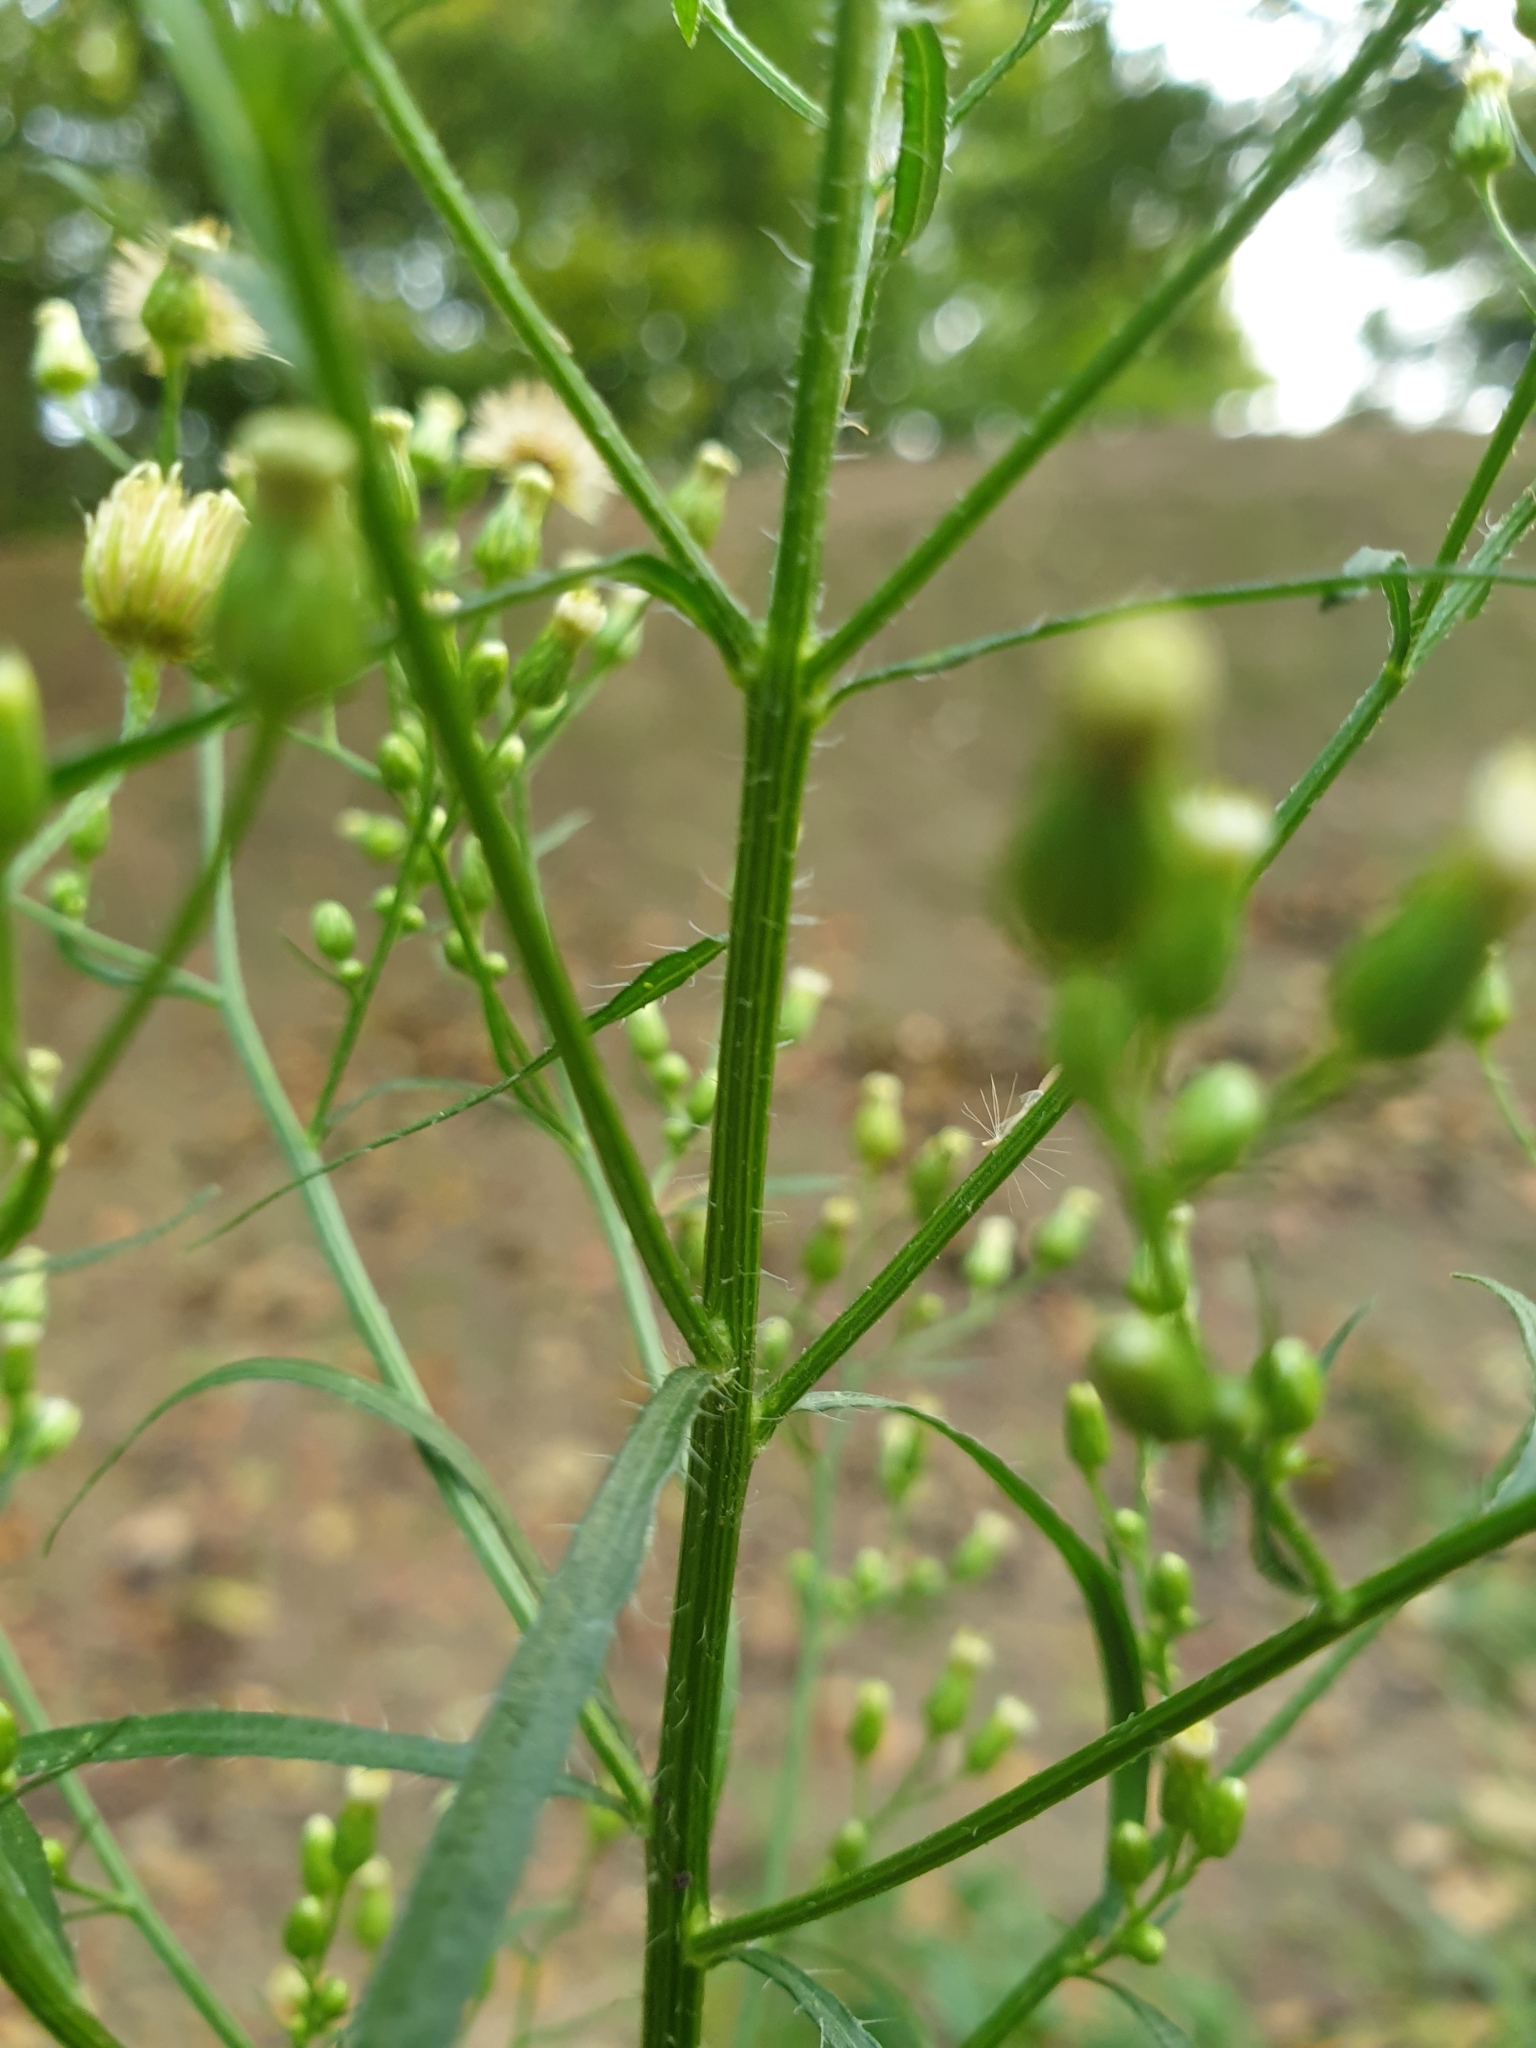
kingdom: Plantae
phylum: Tracheophyta
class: Magnoliopsida
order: Asterales
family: Asteraceae
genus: Erigeron
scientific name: Erigeron canadensis
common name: Canadian fleabane
